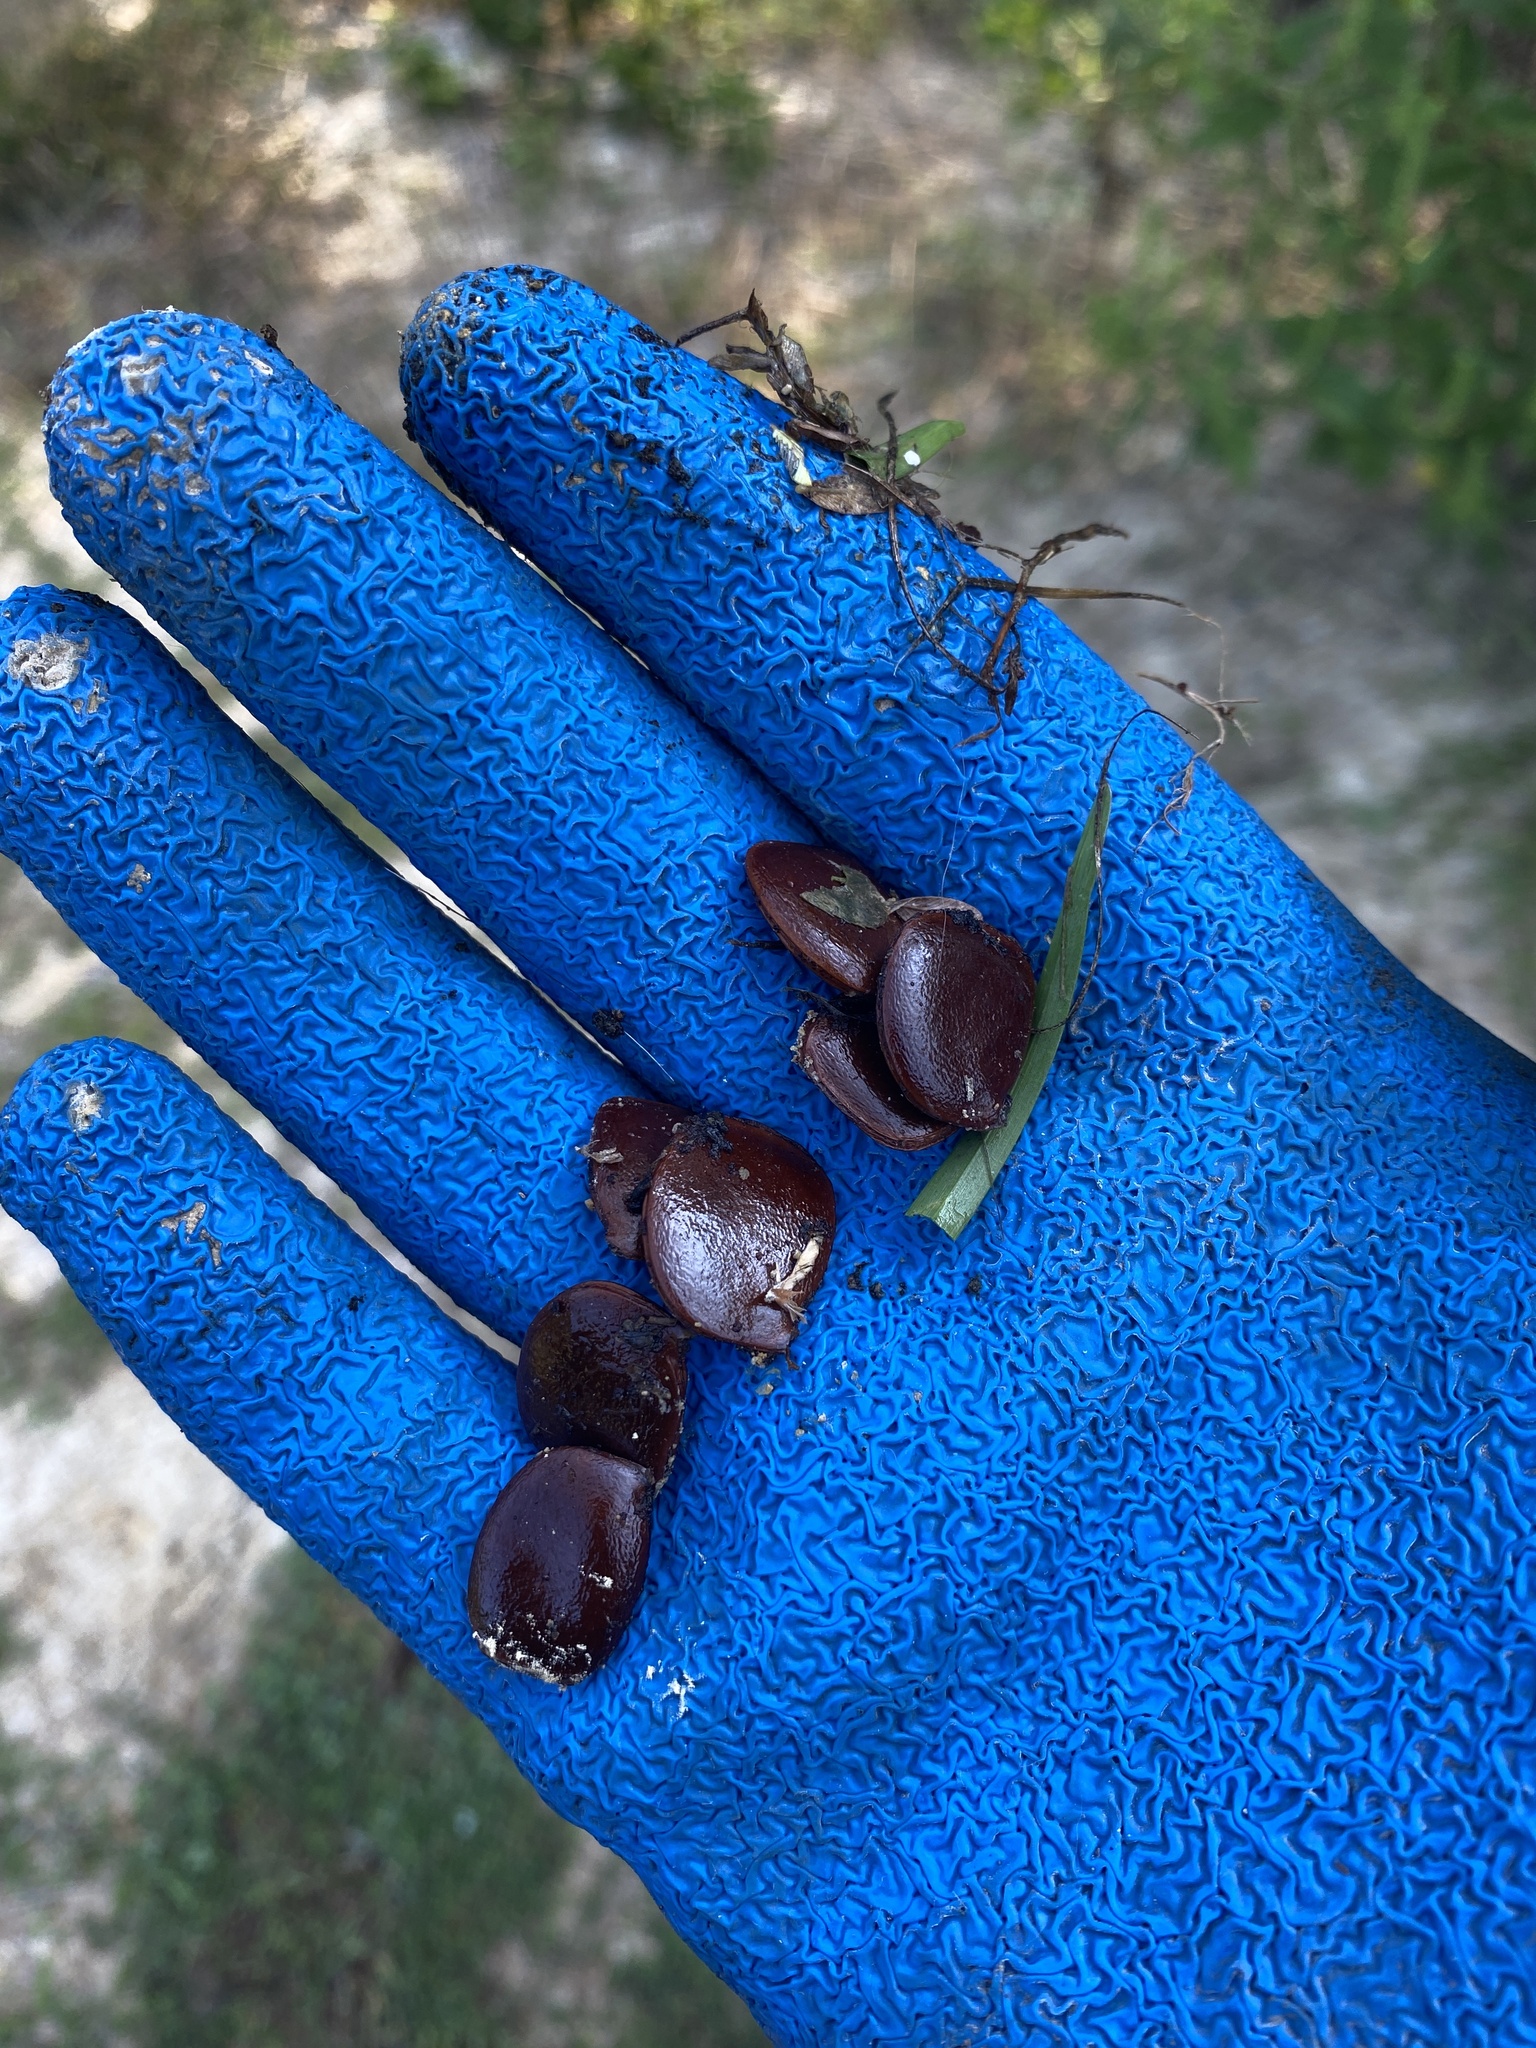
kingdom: Plantae
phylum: Tracheophyta
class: Magnoliopsida
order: Ericales
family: Ebenaceae
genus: Diospyros
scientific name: Diospyros virginiana
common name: Persimmon
